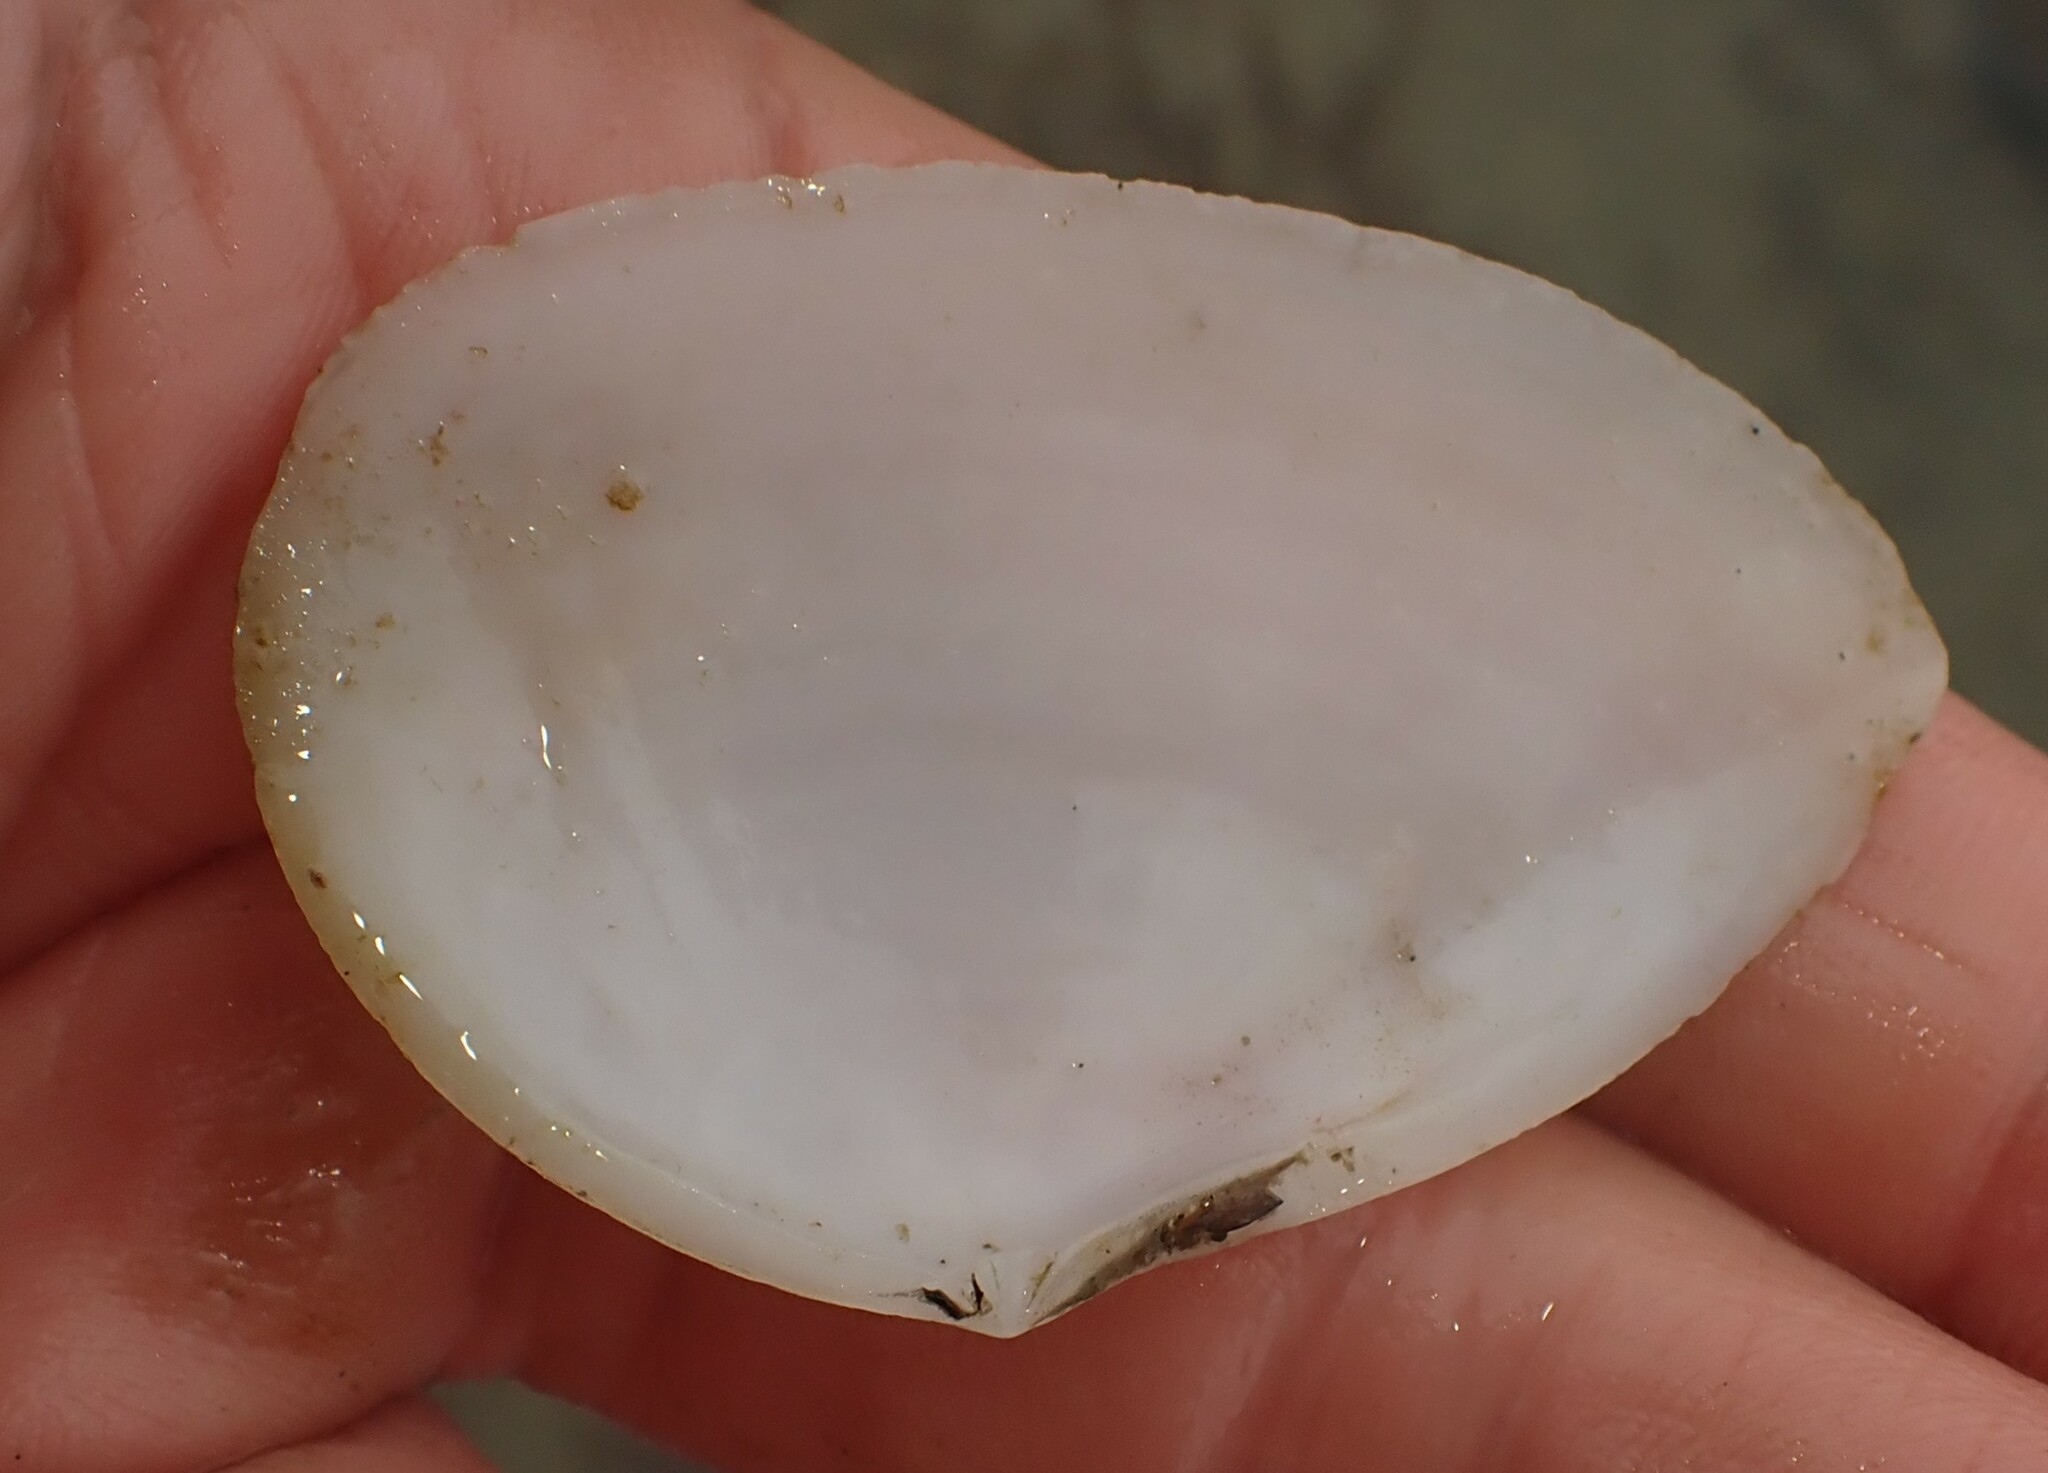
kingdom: Animalia
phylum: Mollusca
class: Bivalvia
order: Cardiida
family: Tellinidae
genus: Bartschicoma
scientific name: Bartschicoma gaimardi
